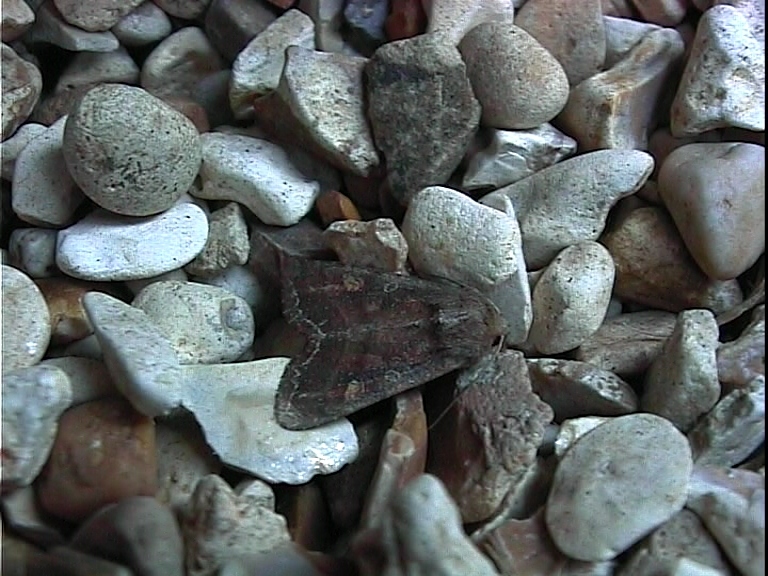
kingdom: Animalia
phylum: Arthropoda
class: Insecta
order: Lepidoptera
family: Noctuidae
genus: Lacanobia
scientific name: Lacanobia oleracea
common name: Bright-line brown-eye
